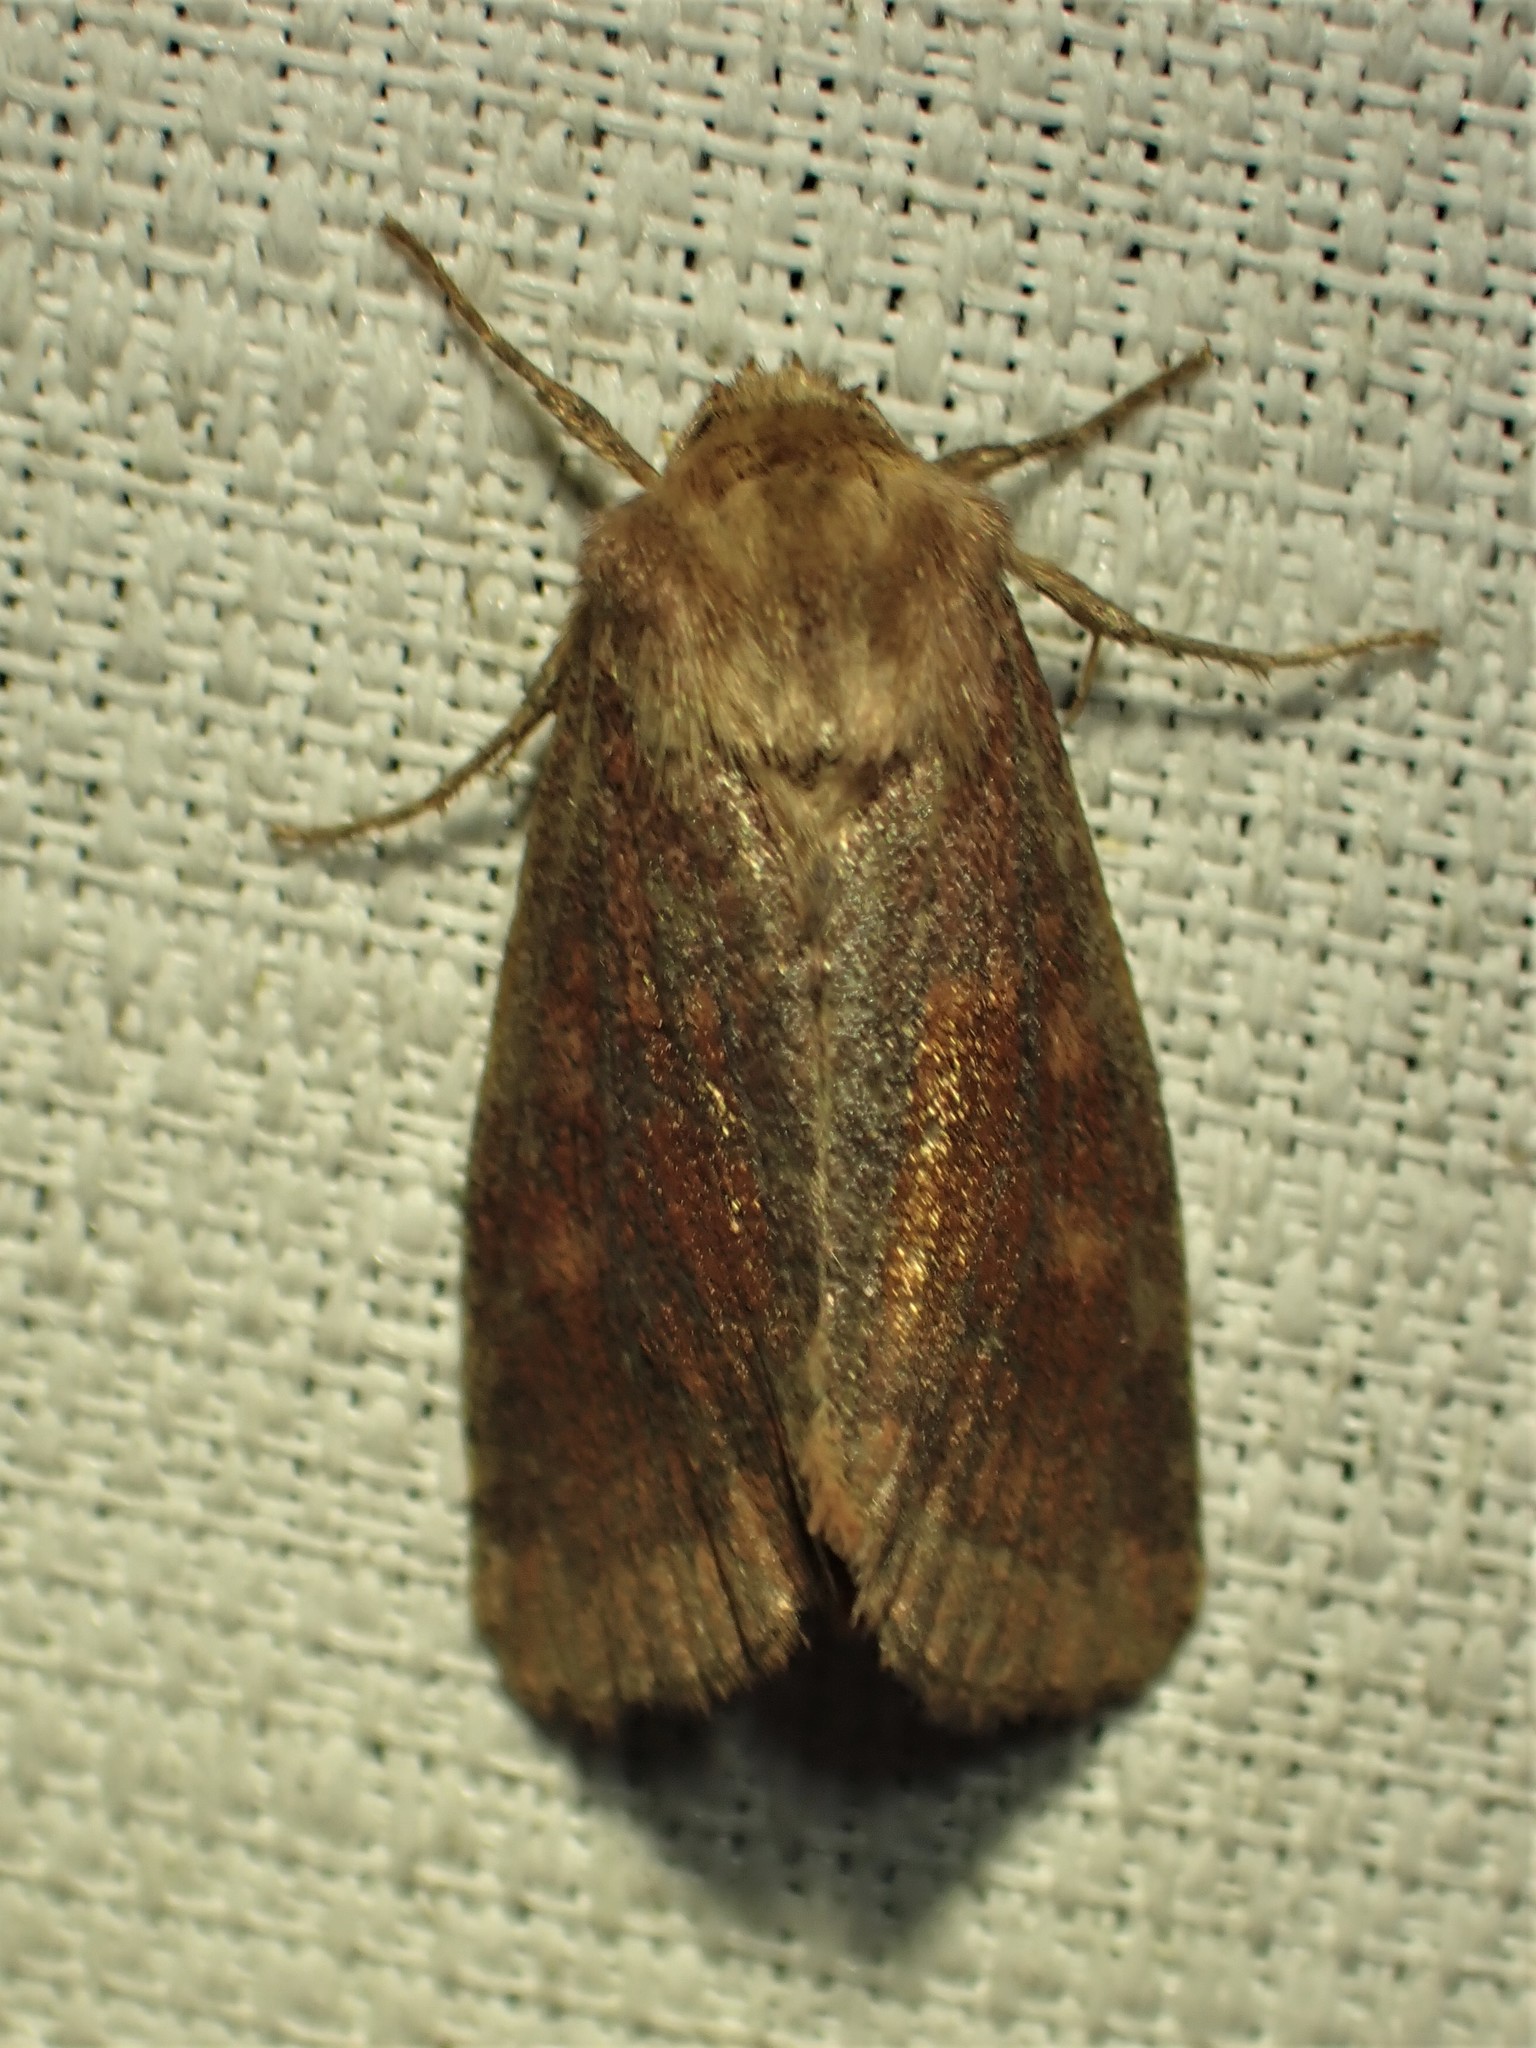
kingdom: Animalia
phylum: Arthropoda
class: Insecta
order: Lepidoptera
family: Noctuidae
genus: Nephelodes
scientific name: Nephelodes minians
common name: Bronzed cutworm
